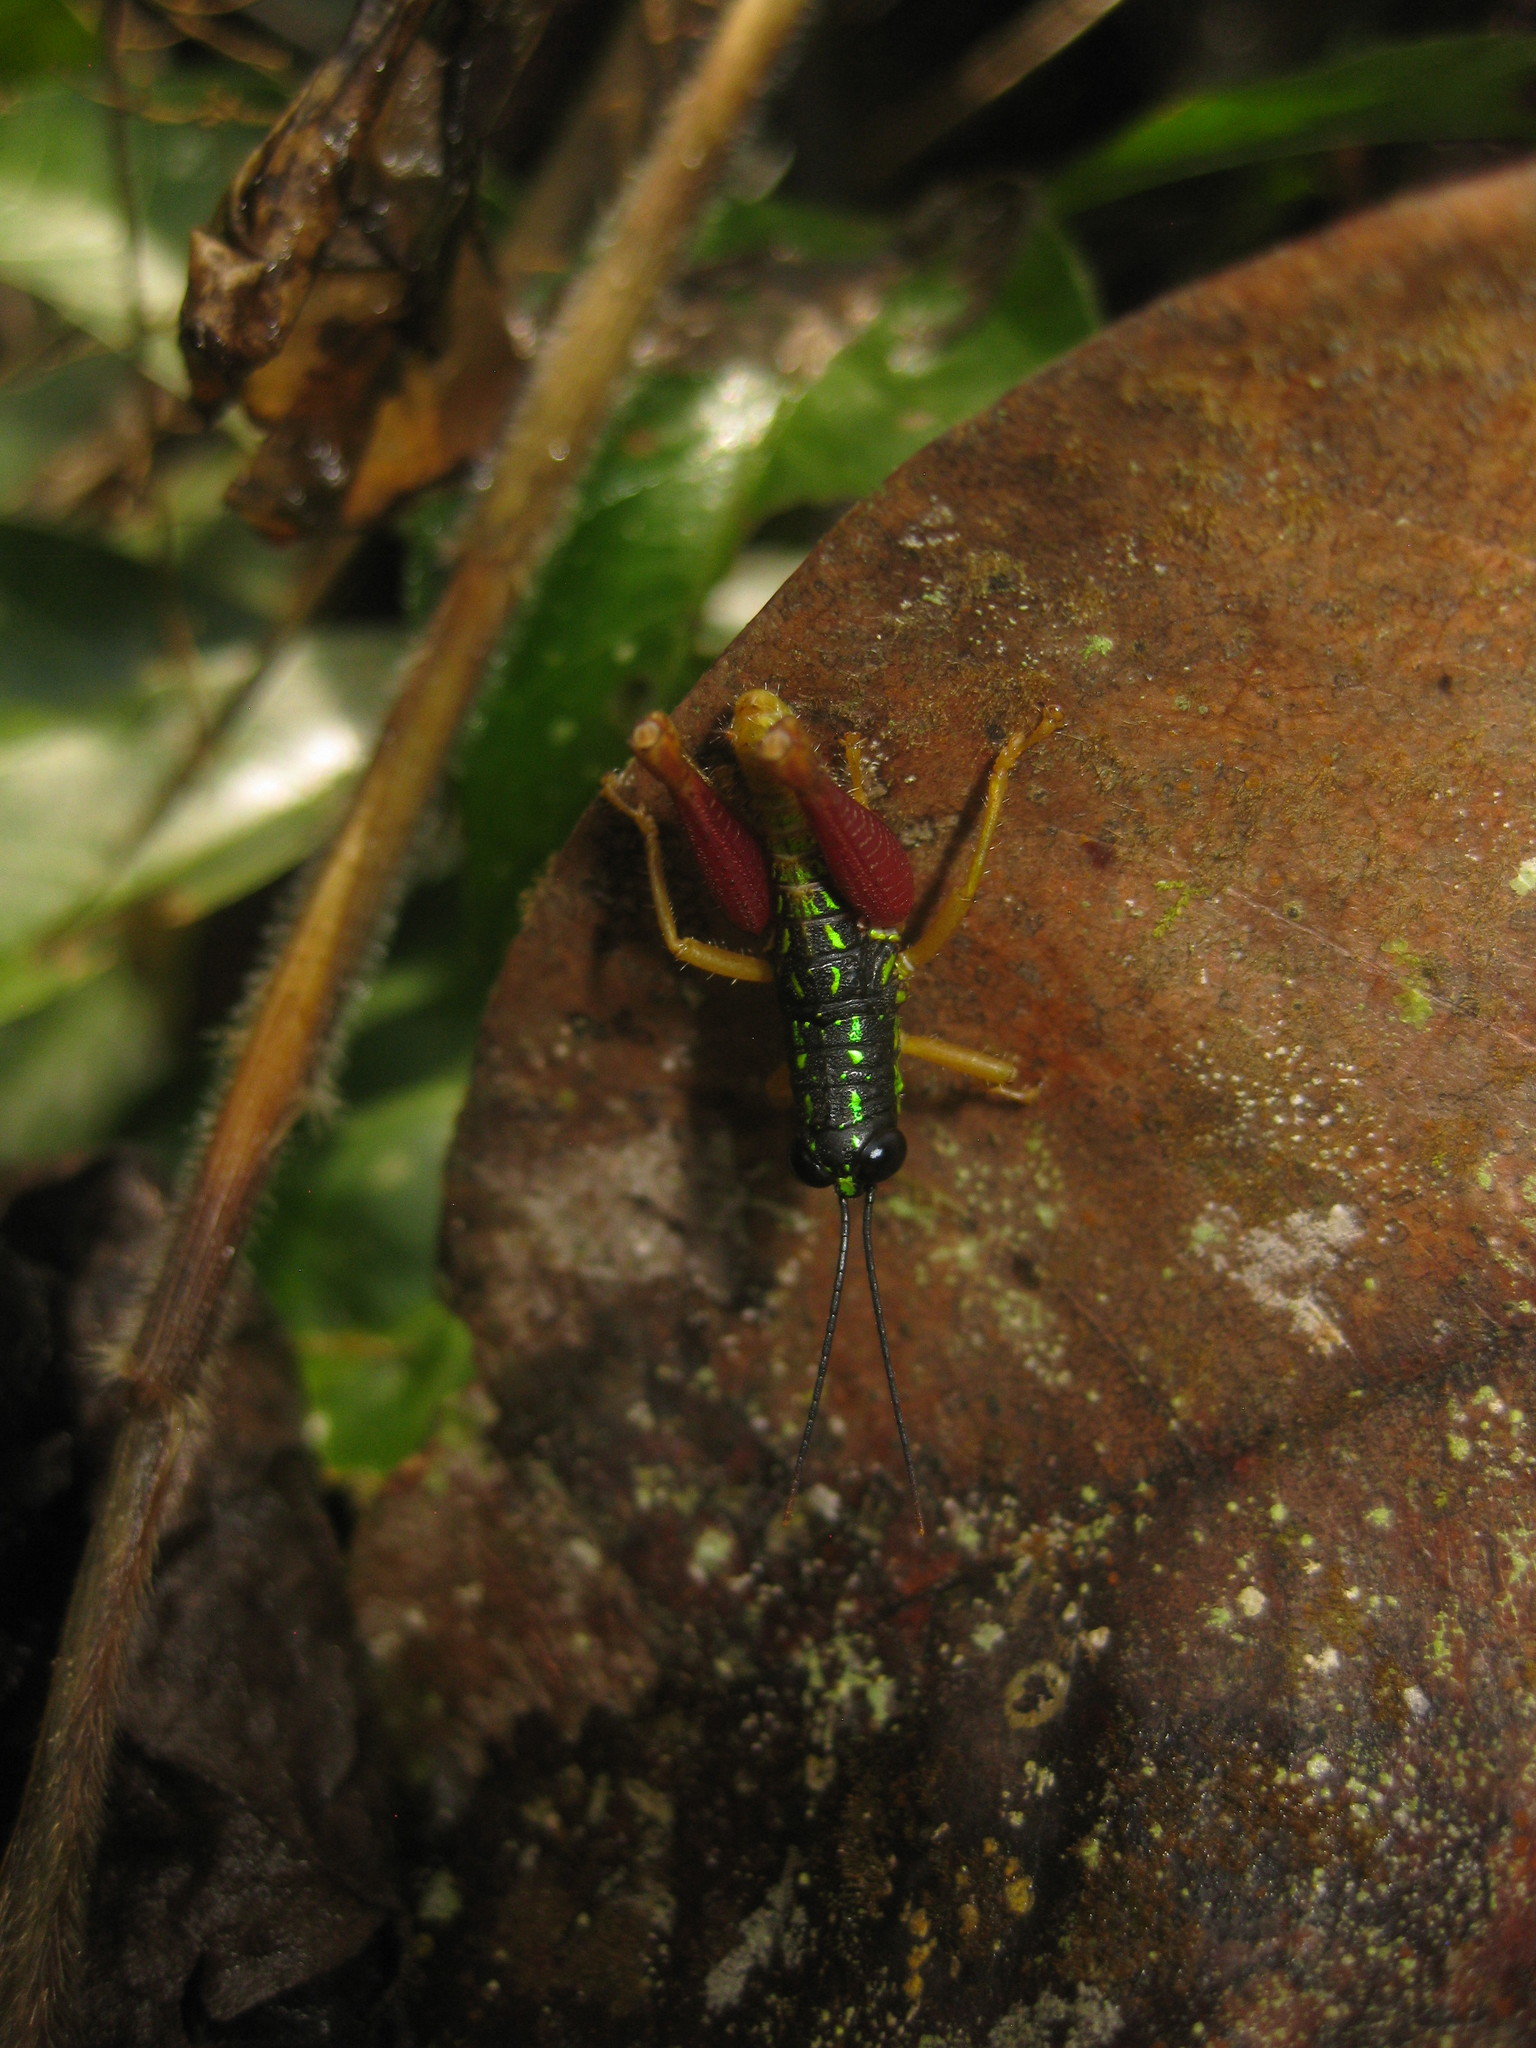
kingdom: Animalia
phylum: Arthropoda
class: Insecta
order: Orthoptera
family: Acrididae
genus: Galidacris
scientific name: Galidacris variabilis
